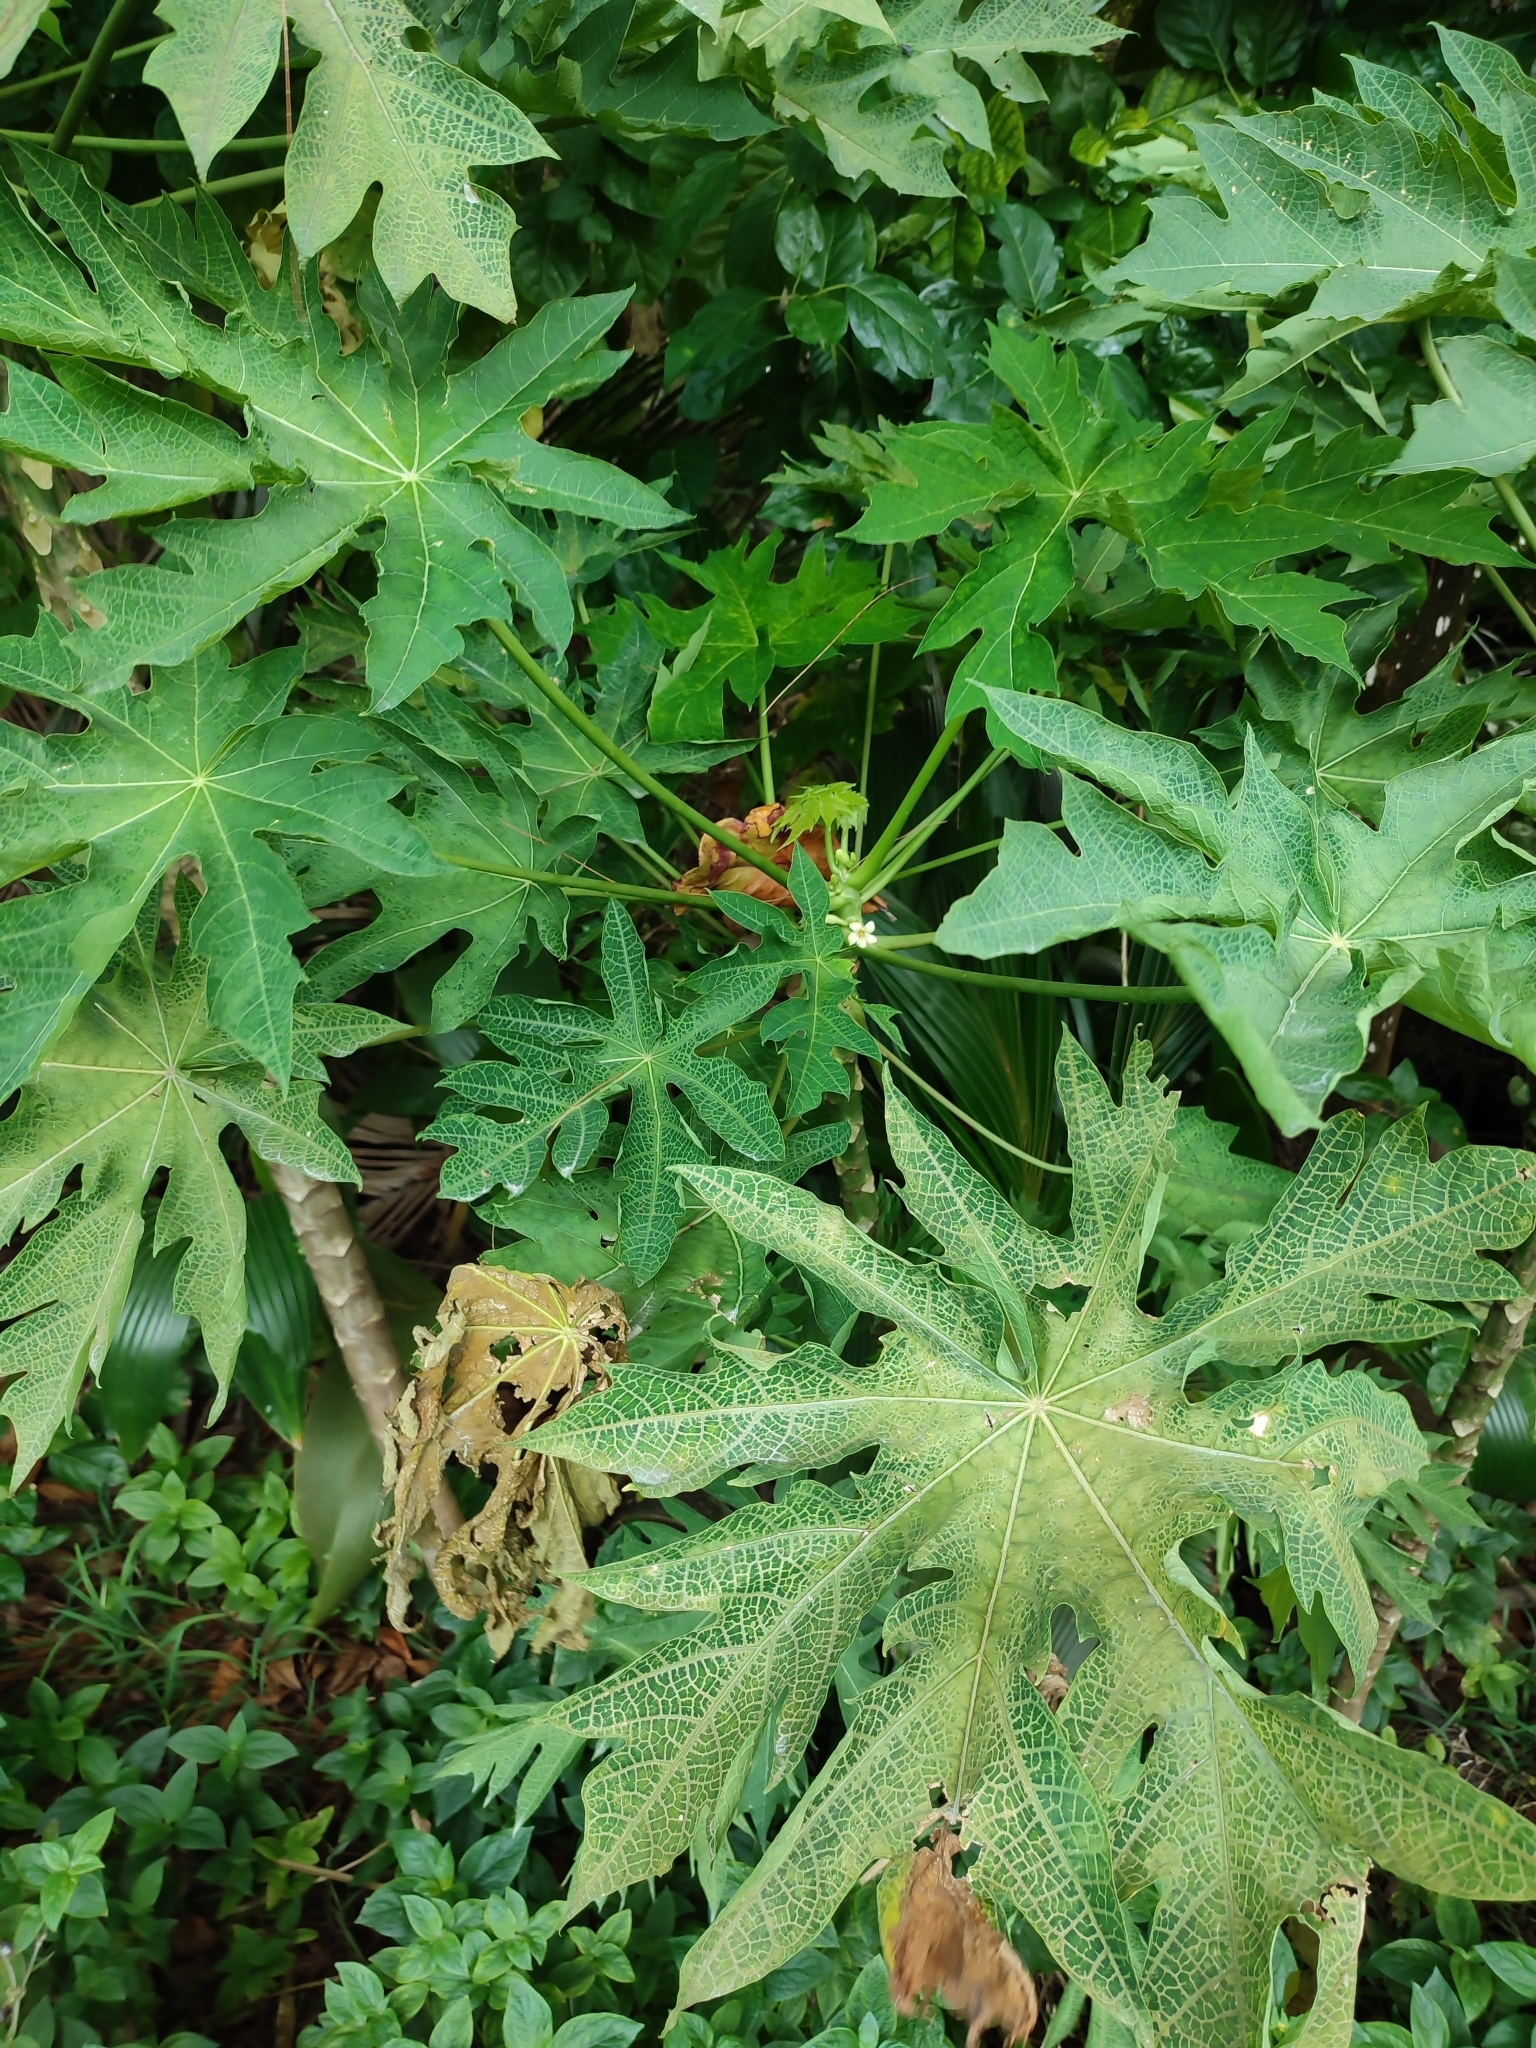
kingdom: Plantae
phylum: Tracheophyta
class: Magnoliopsida
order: Brassicales
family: Caricaceae
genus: Carica
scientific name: Carica papaya
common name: Papaya
